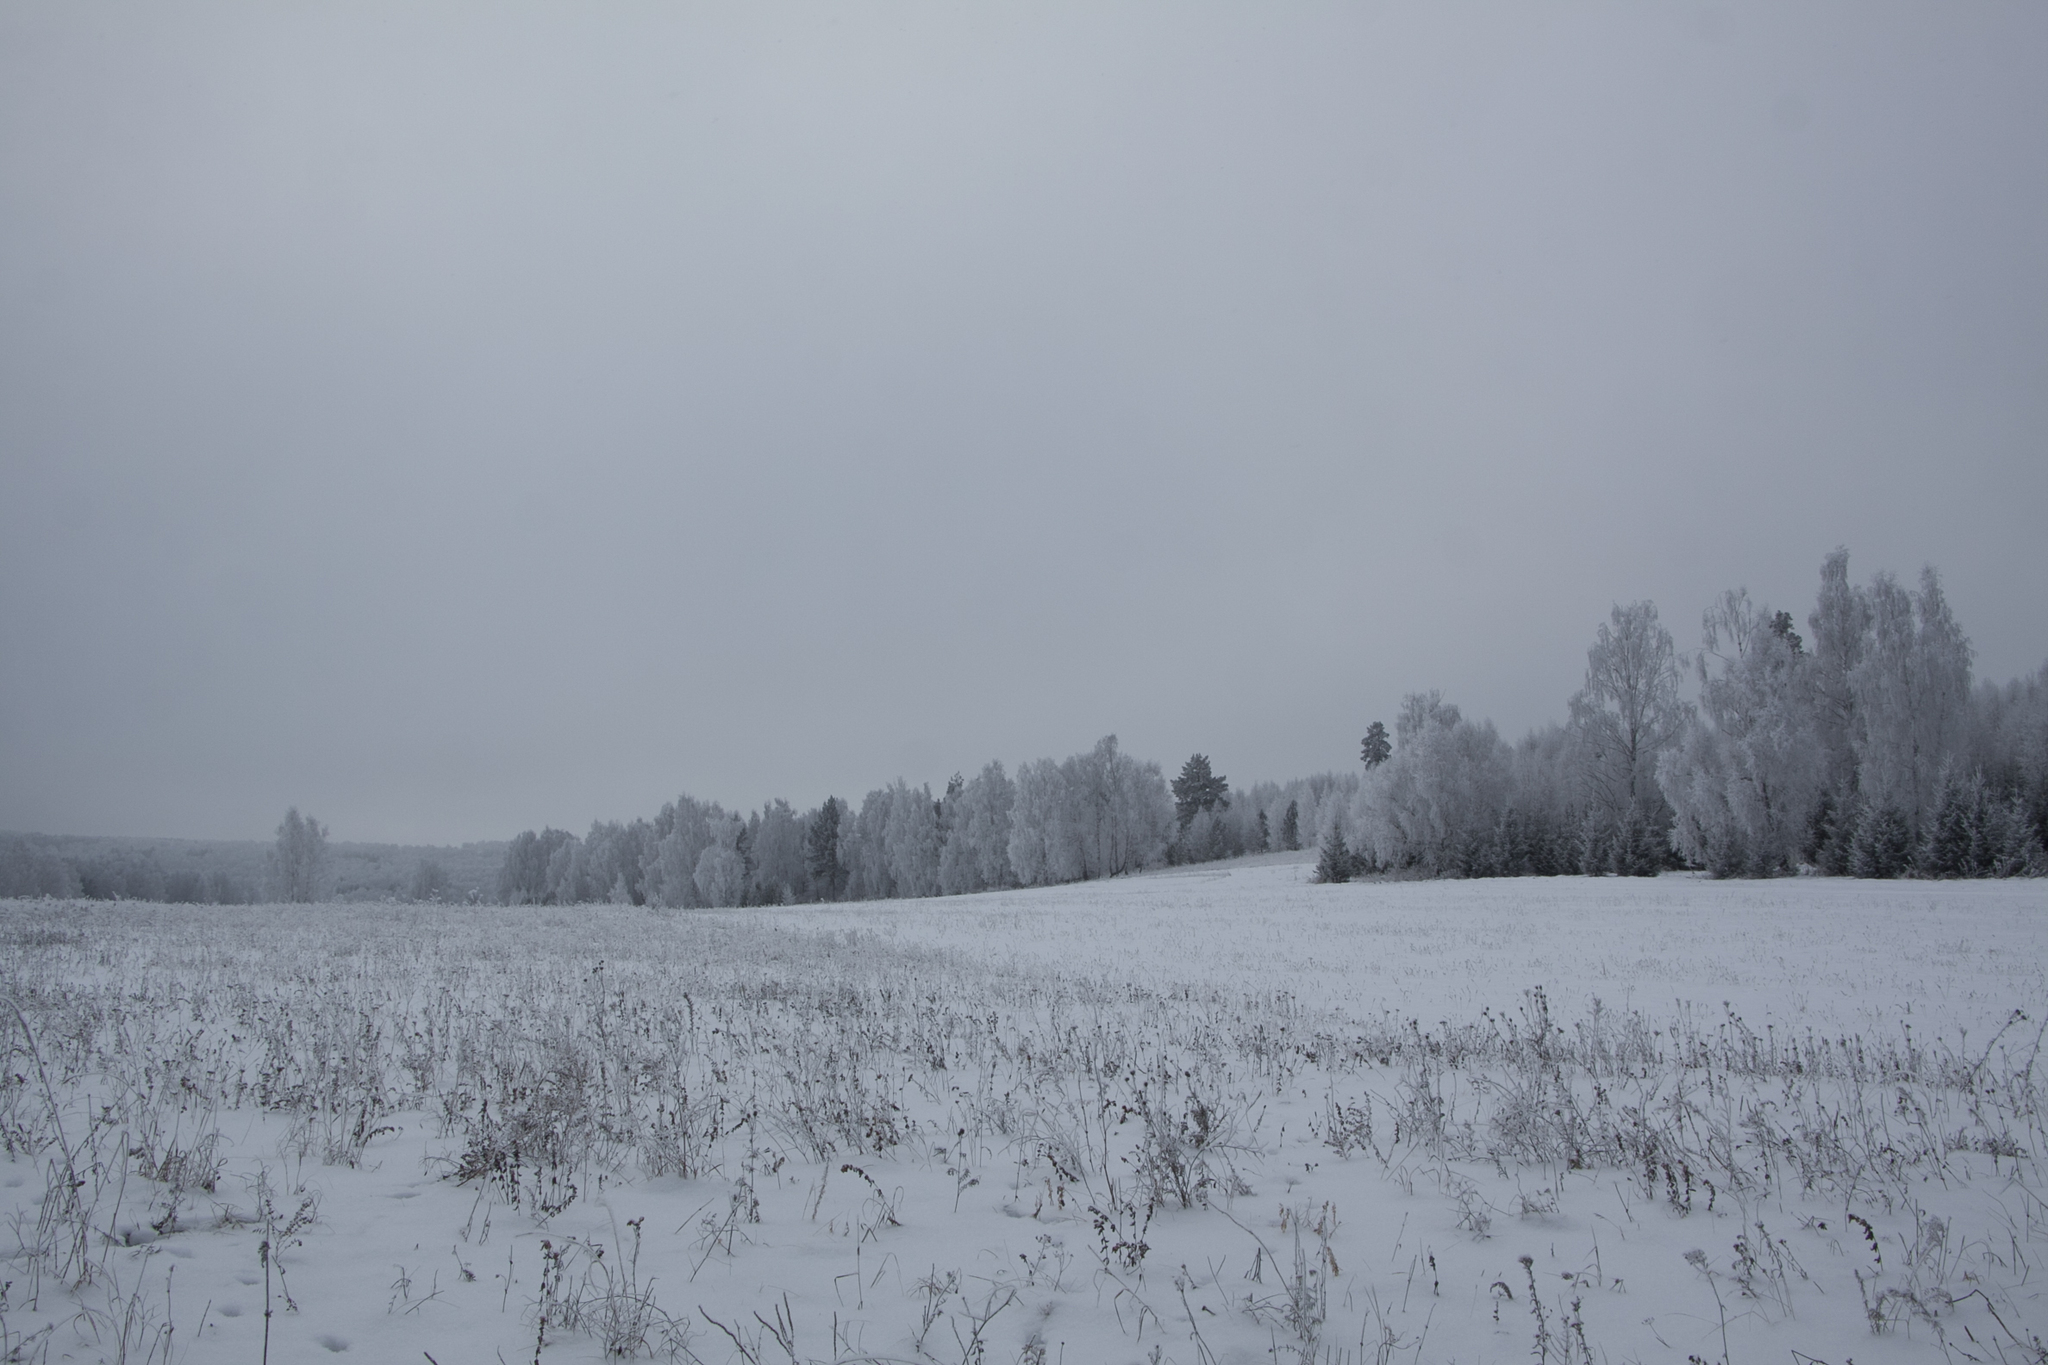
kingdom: Plantae
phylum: Tracheophyta
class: Magnoliopsida
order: Fagales
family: Betulaceae
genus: Betula
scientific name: Betula pendula
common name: Silver birch
